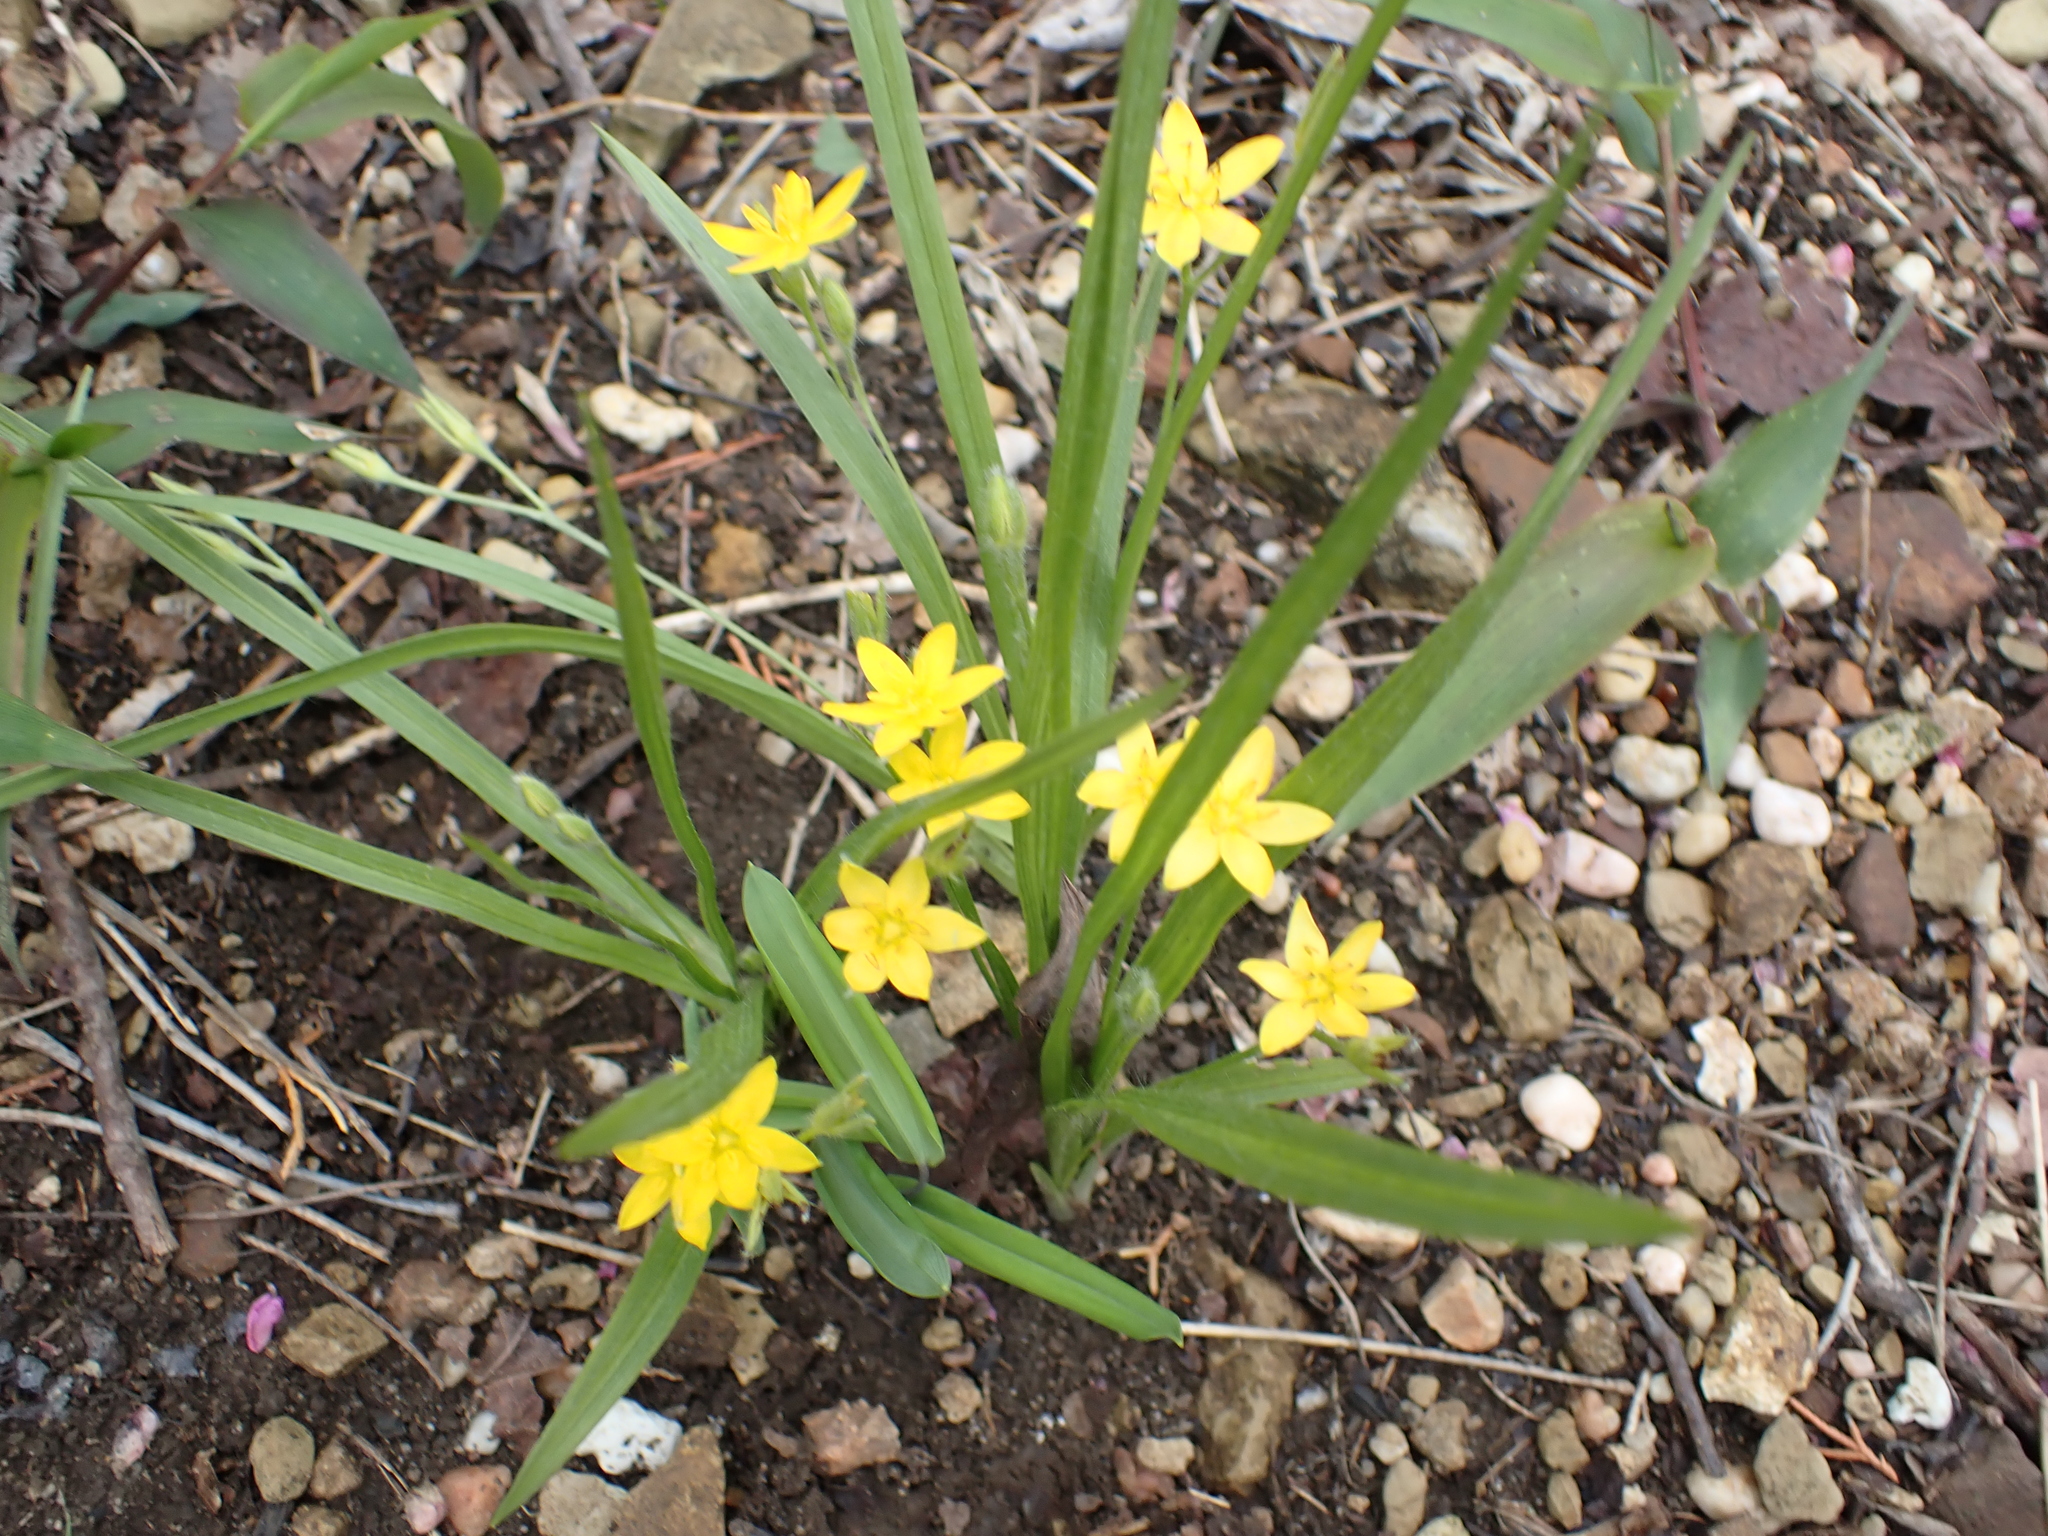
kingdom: Plantae
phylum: Tracheophyta
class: Liliopsida
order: Asparagales
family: Hypoxidaceae
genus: Hypoxis
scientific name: Hypoxis hirsuta
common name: Common goldstar
